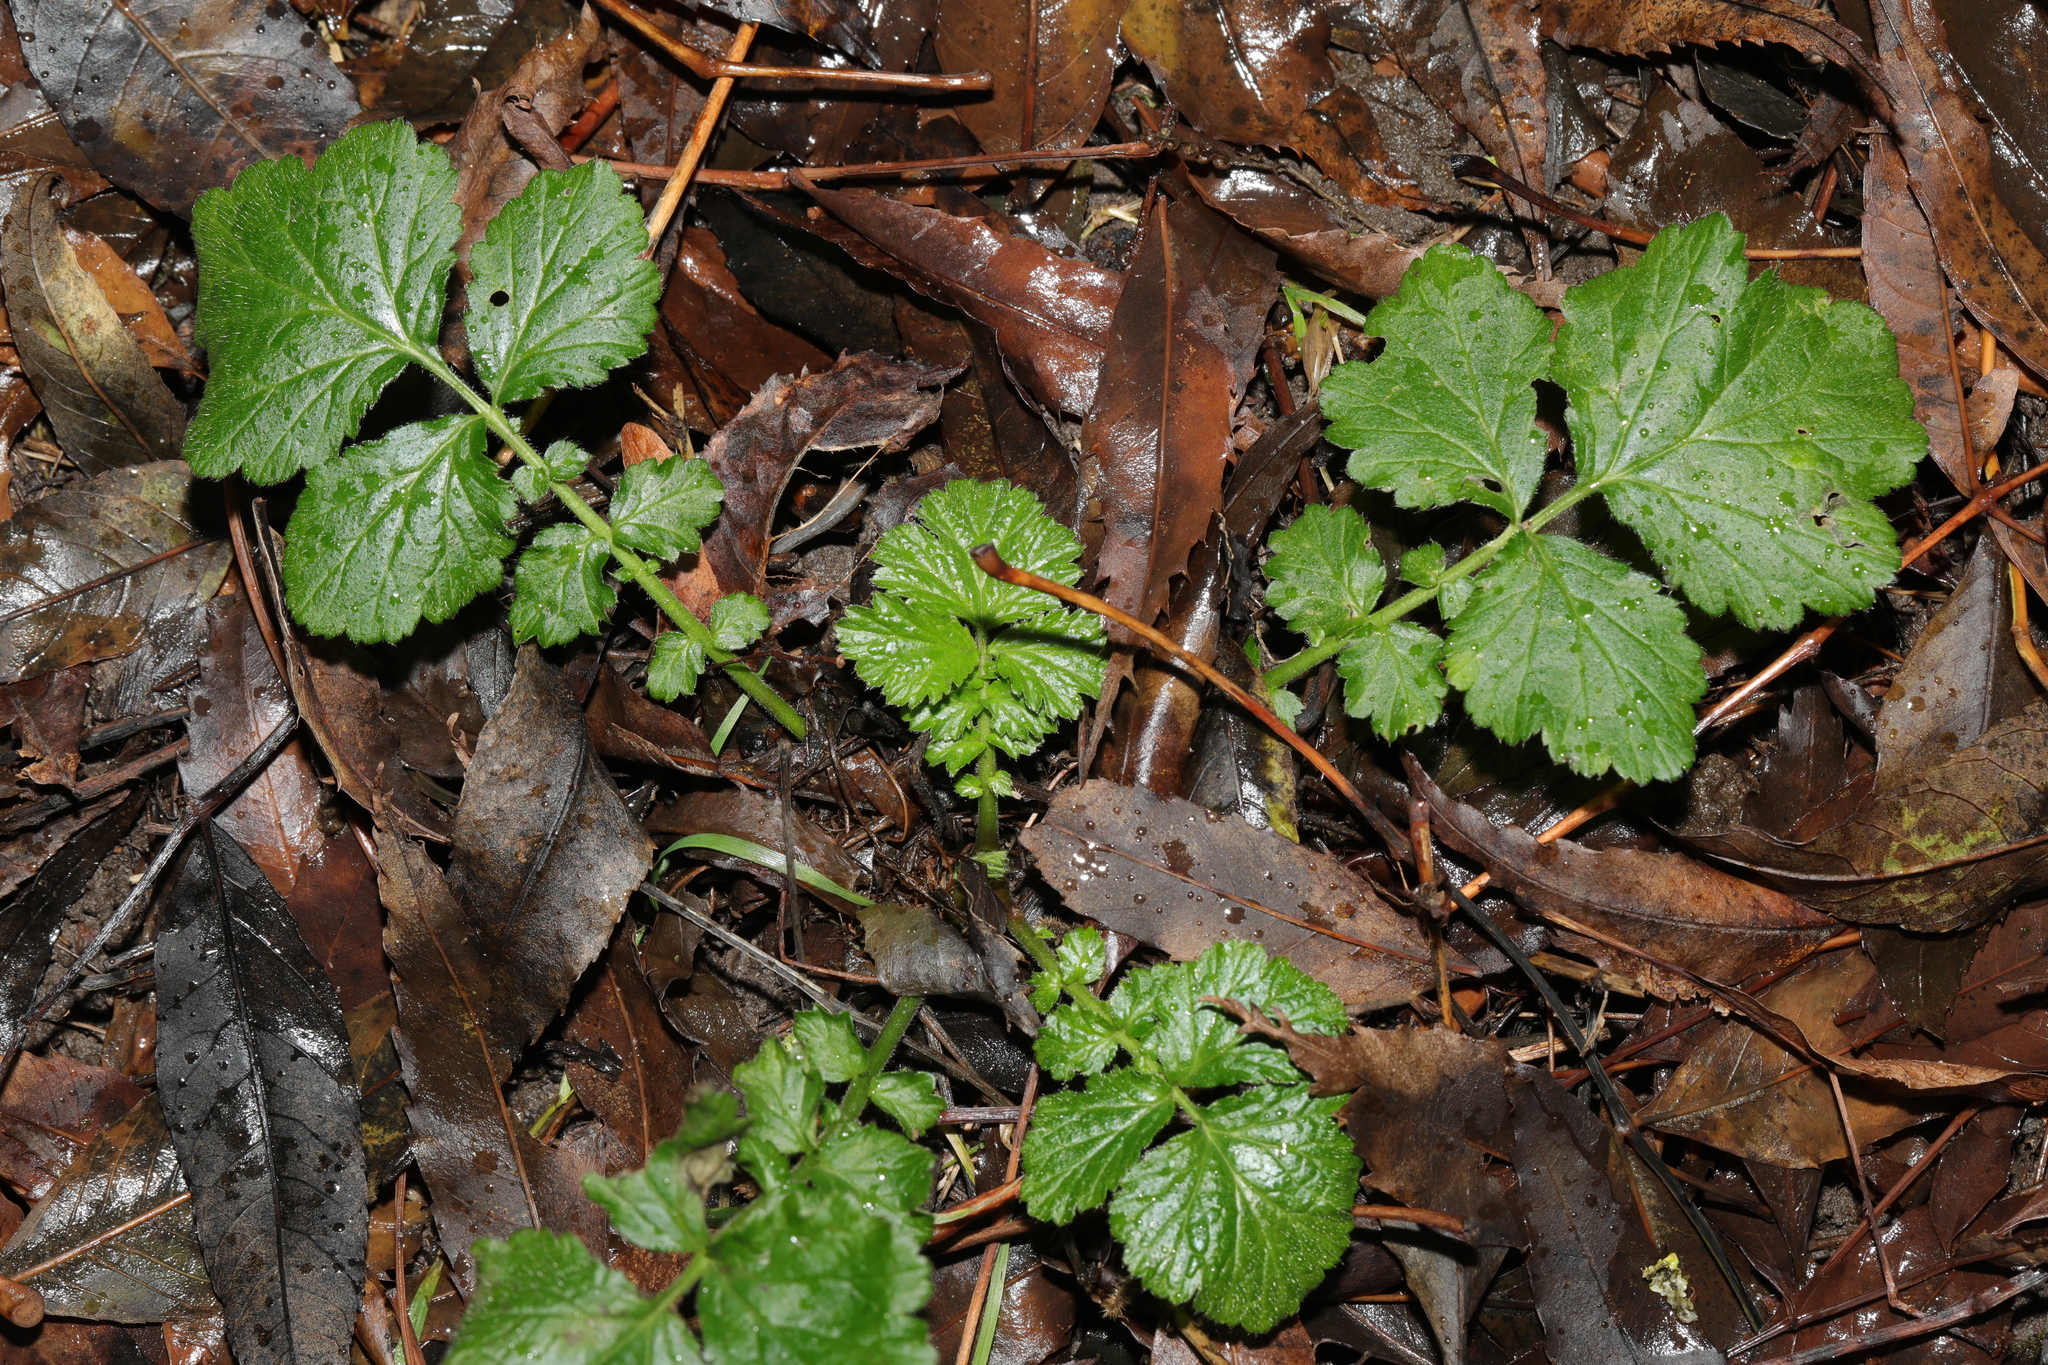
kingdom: Plantae
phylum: Tracheophyta
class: Magnoliopsida
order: Rosales
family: Rosaceae
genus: Geum
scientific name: Geum urbanum
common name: Wood avens
